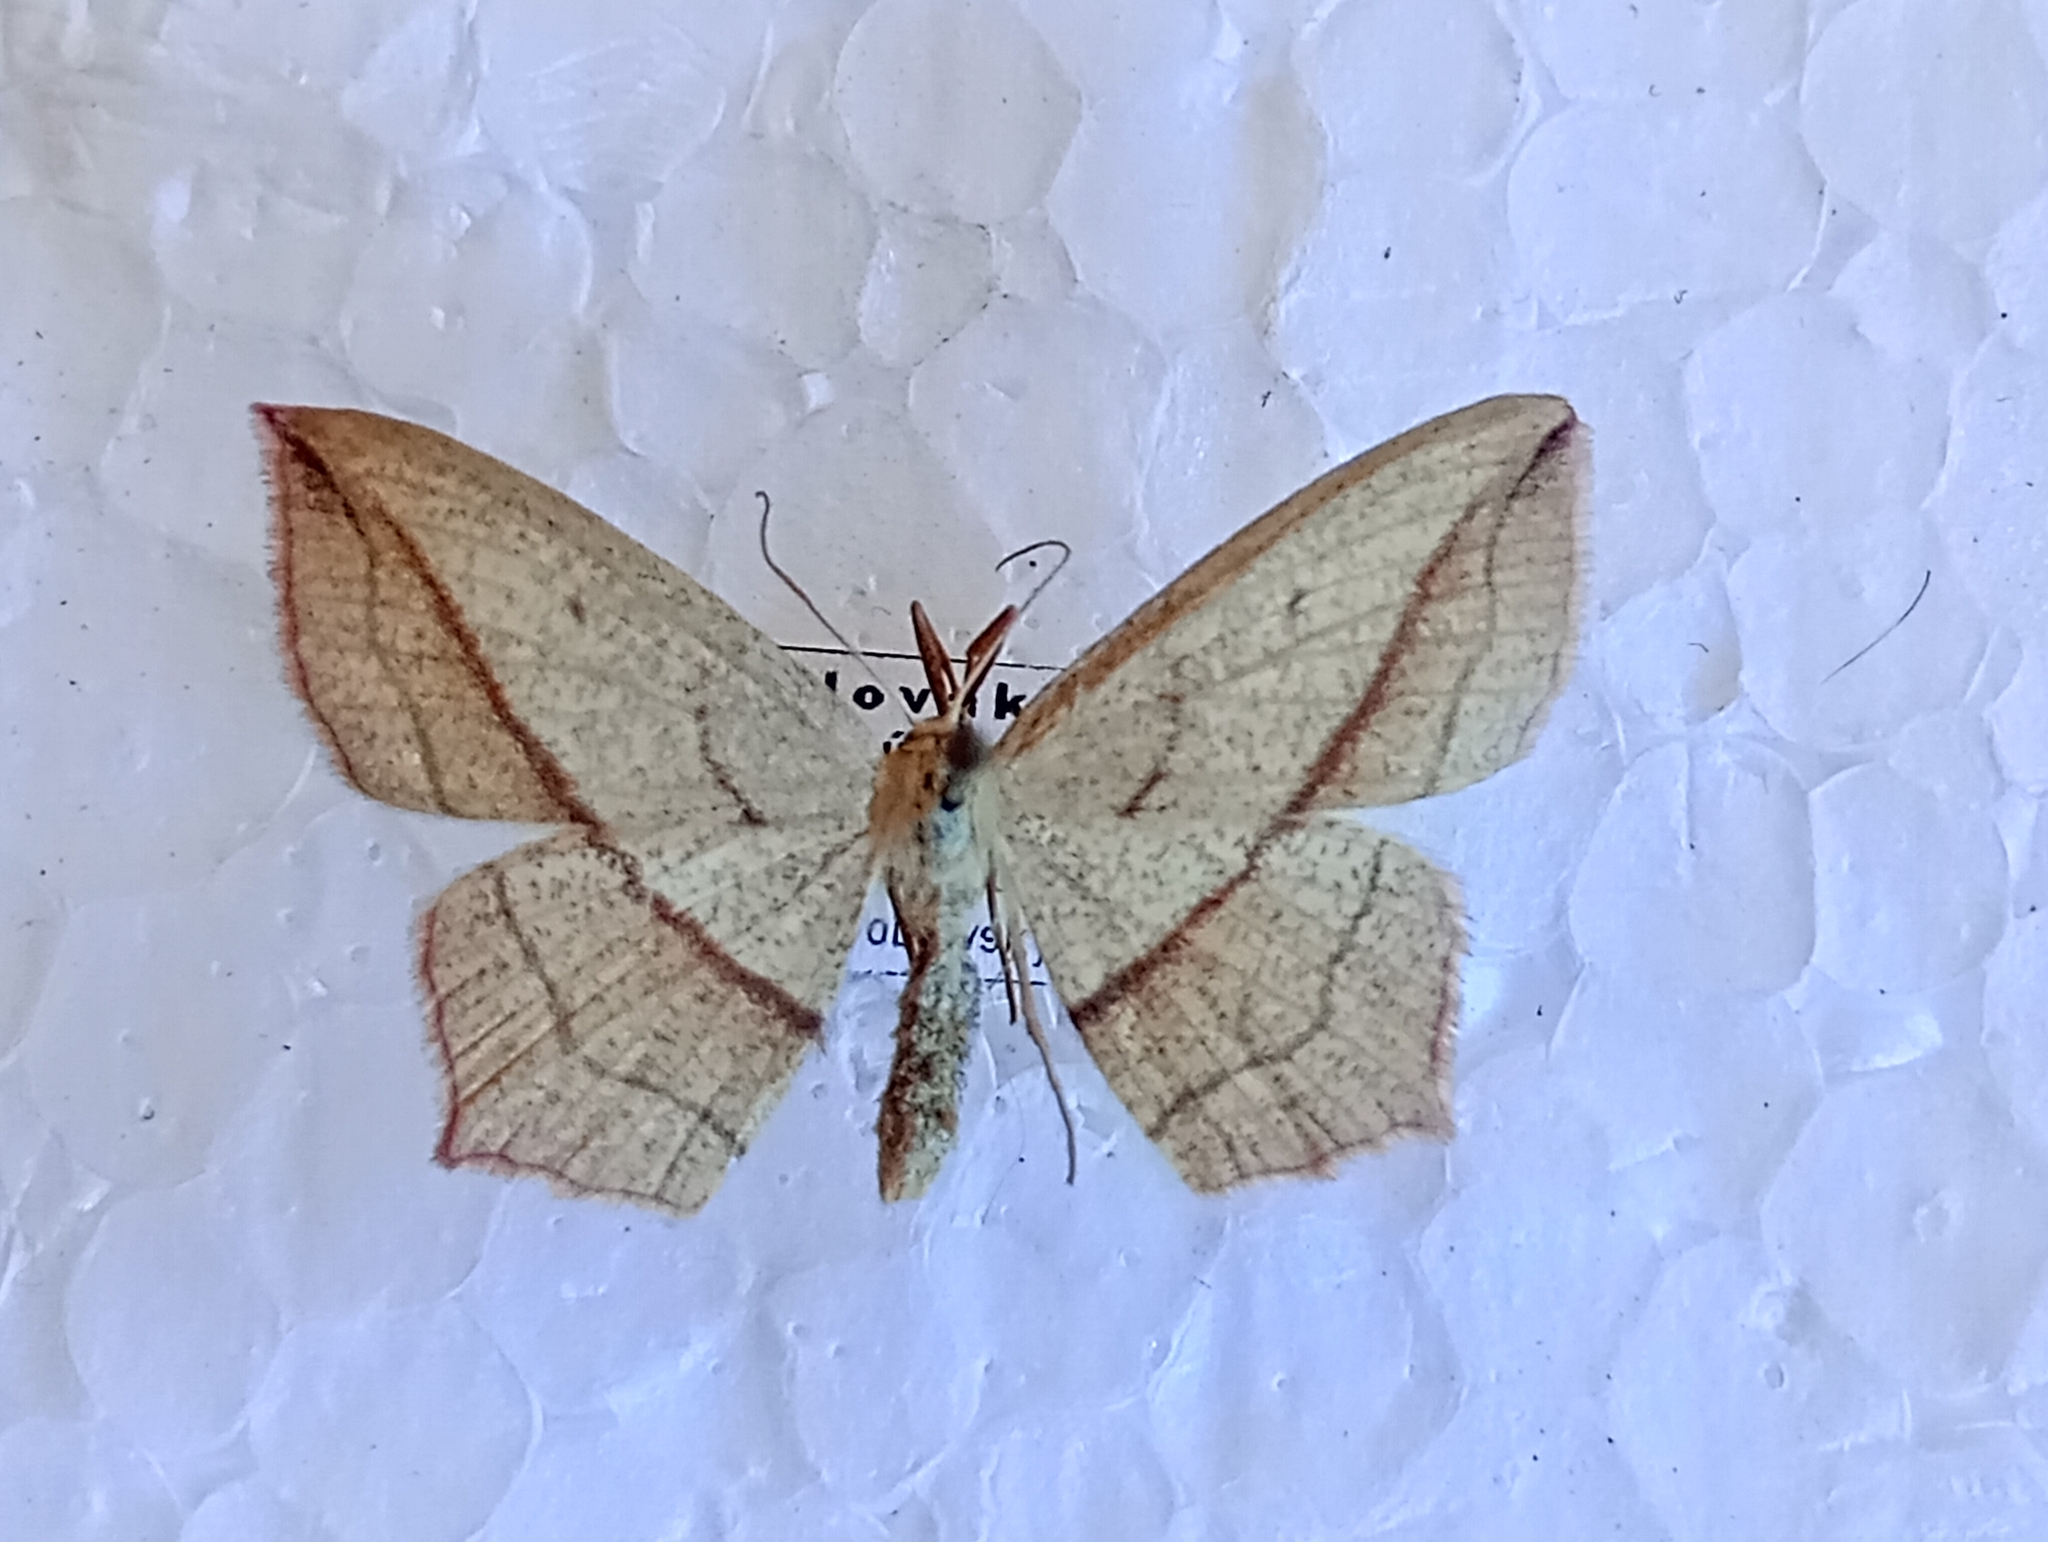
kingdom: Animalia
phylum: Arthropoda
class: Insecta
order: Lepidoptera
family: Geometridae
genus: Timandra
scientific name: Timandra comae
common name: Blood-vein
